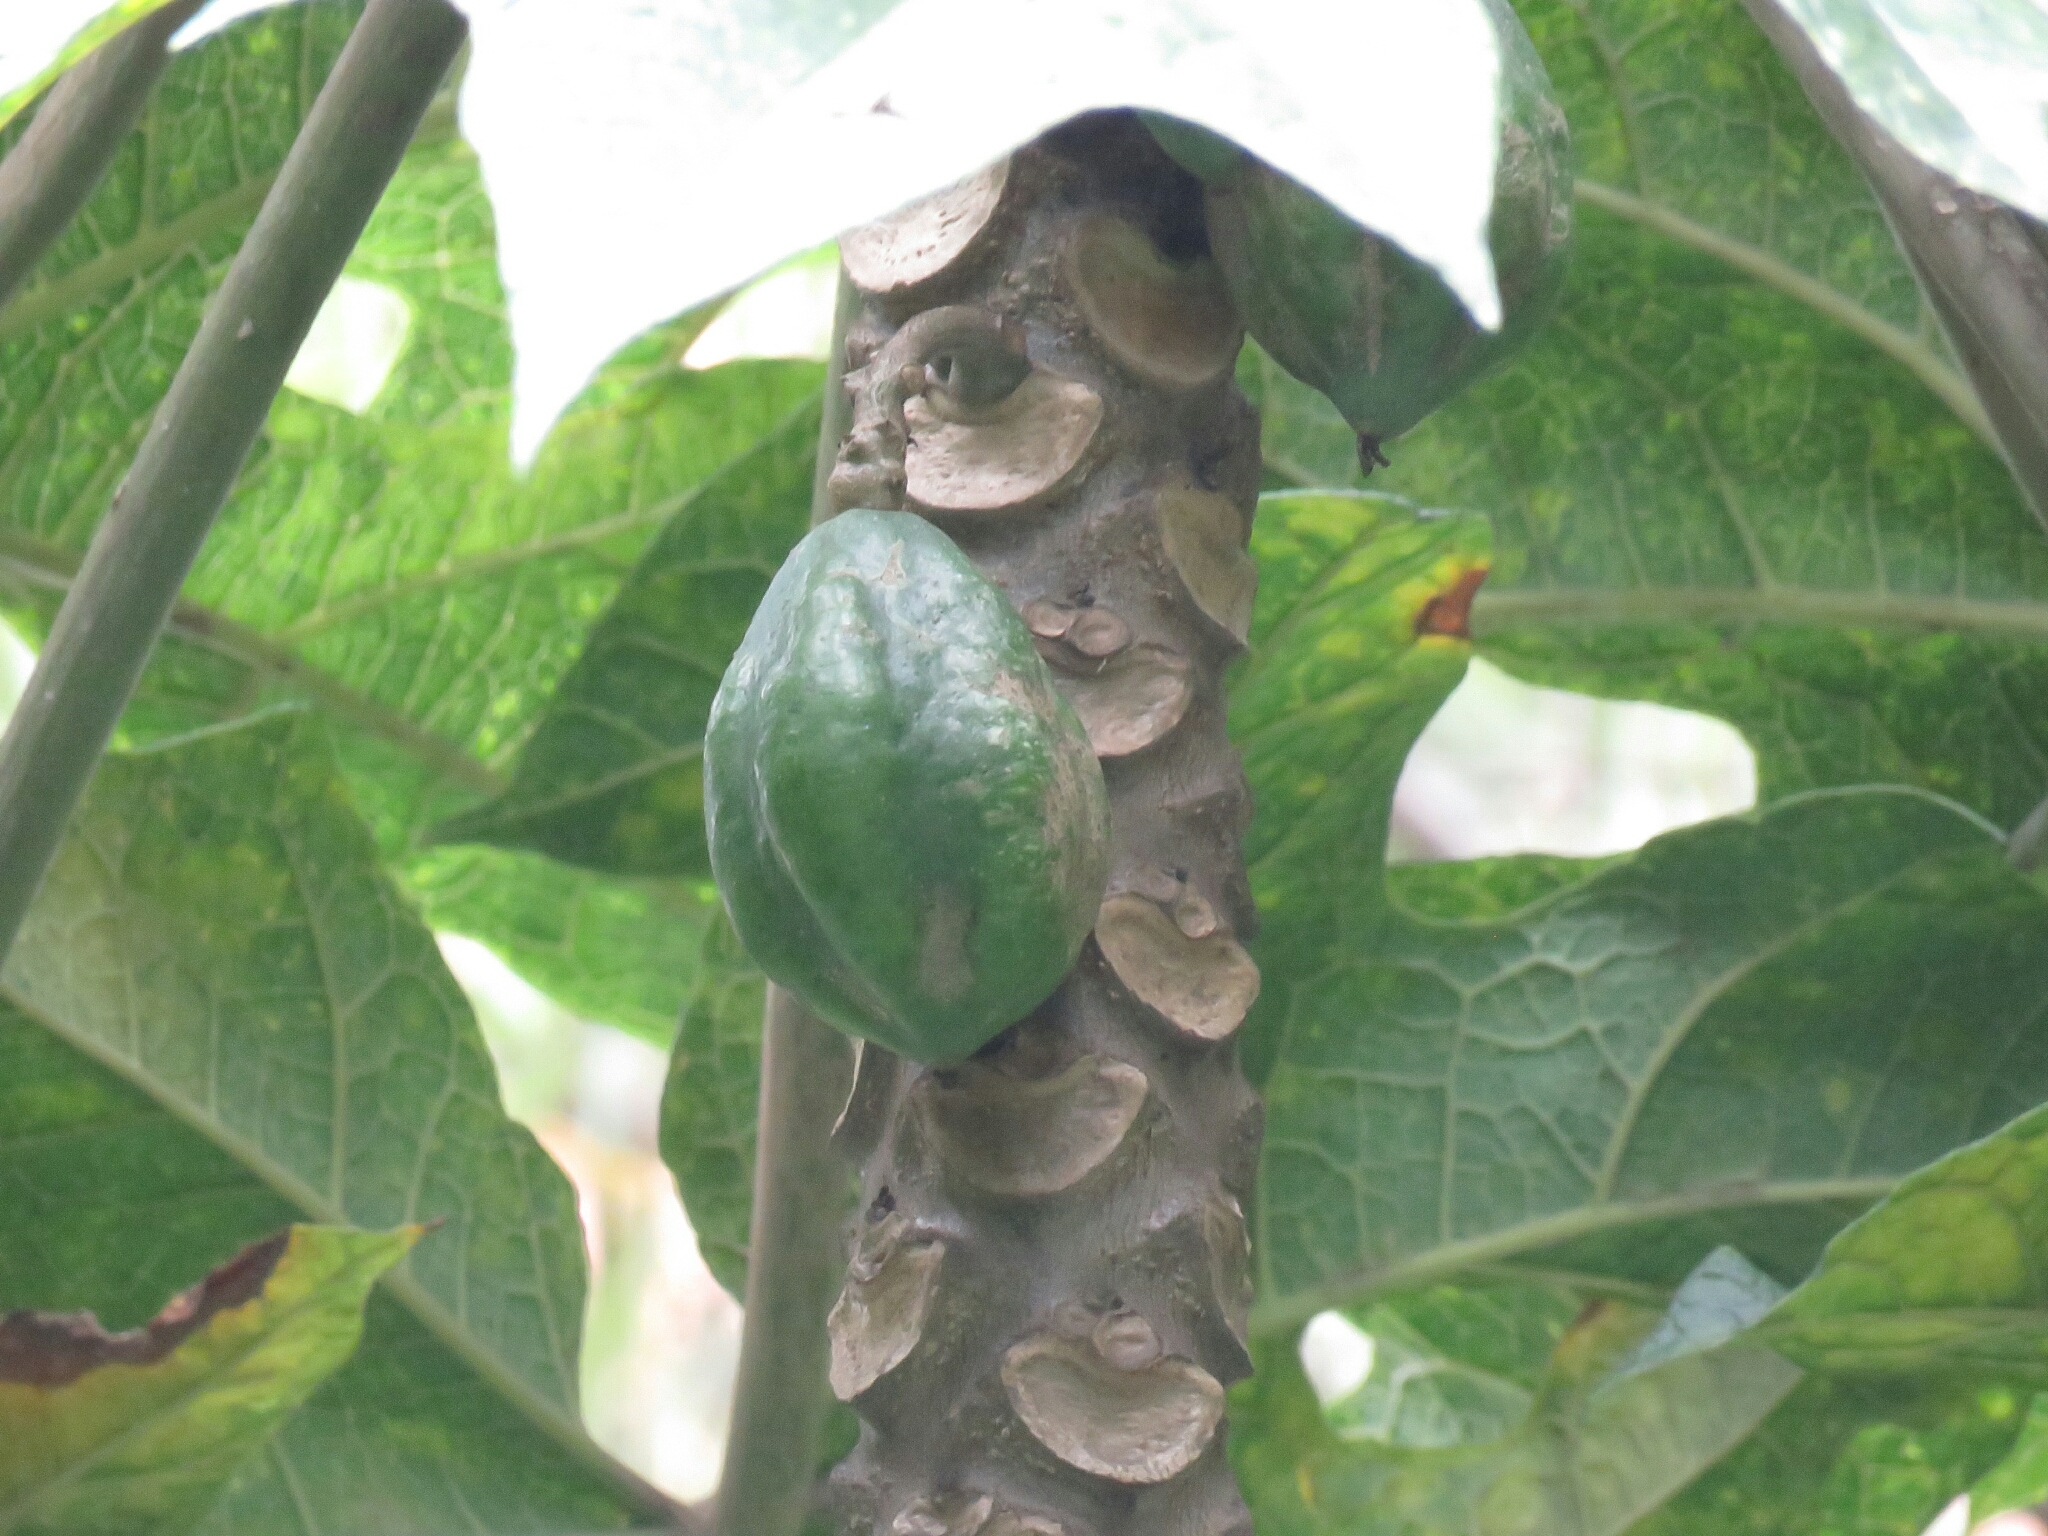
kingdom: Plantae
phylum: Tracheophyta
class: Magnoliopsida
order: Brassicales
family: Caricaceae
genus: Vasconcellea
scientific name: Vasconcellea pubescens
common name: Mountain papaya
